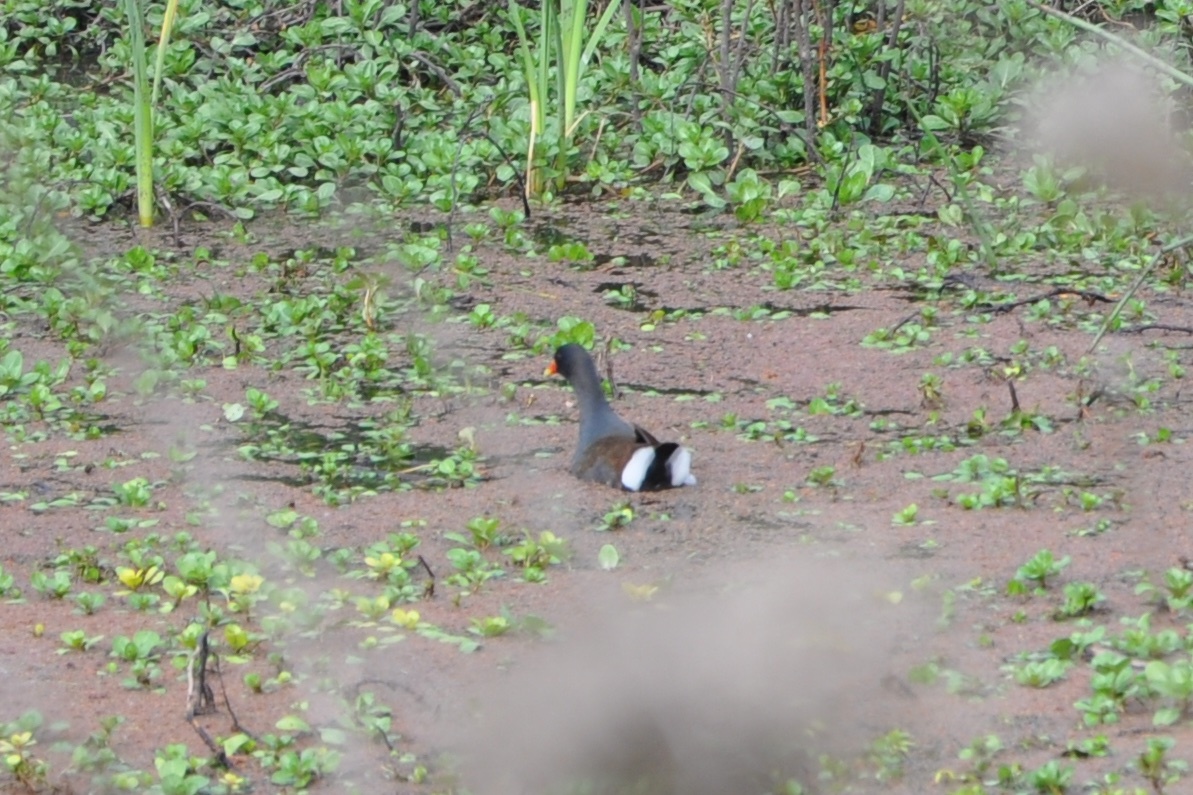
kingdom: Animalia
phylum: Chordata
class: Aves
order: Gruiformes
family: Rallidae
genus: Gallinula
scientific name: Gallinula chloropus
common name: Common moorhen
